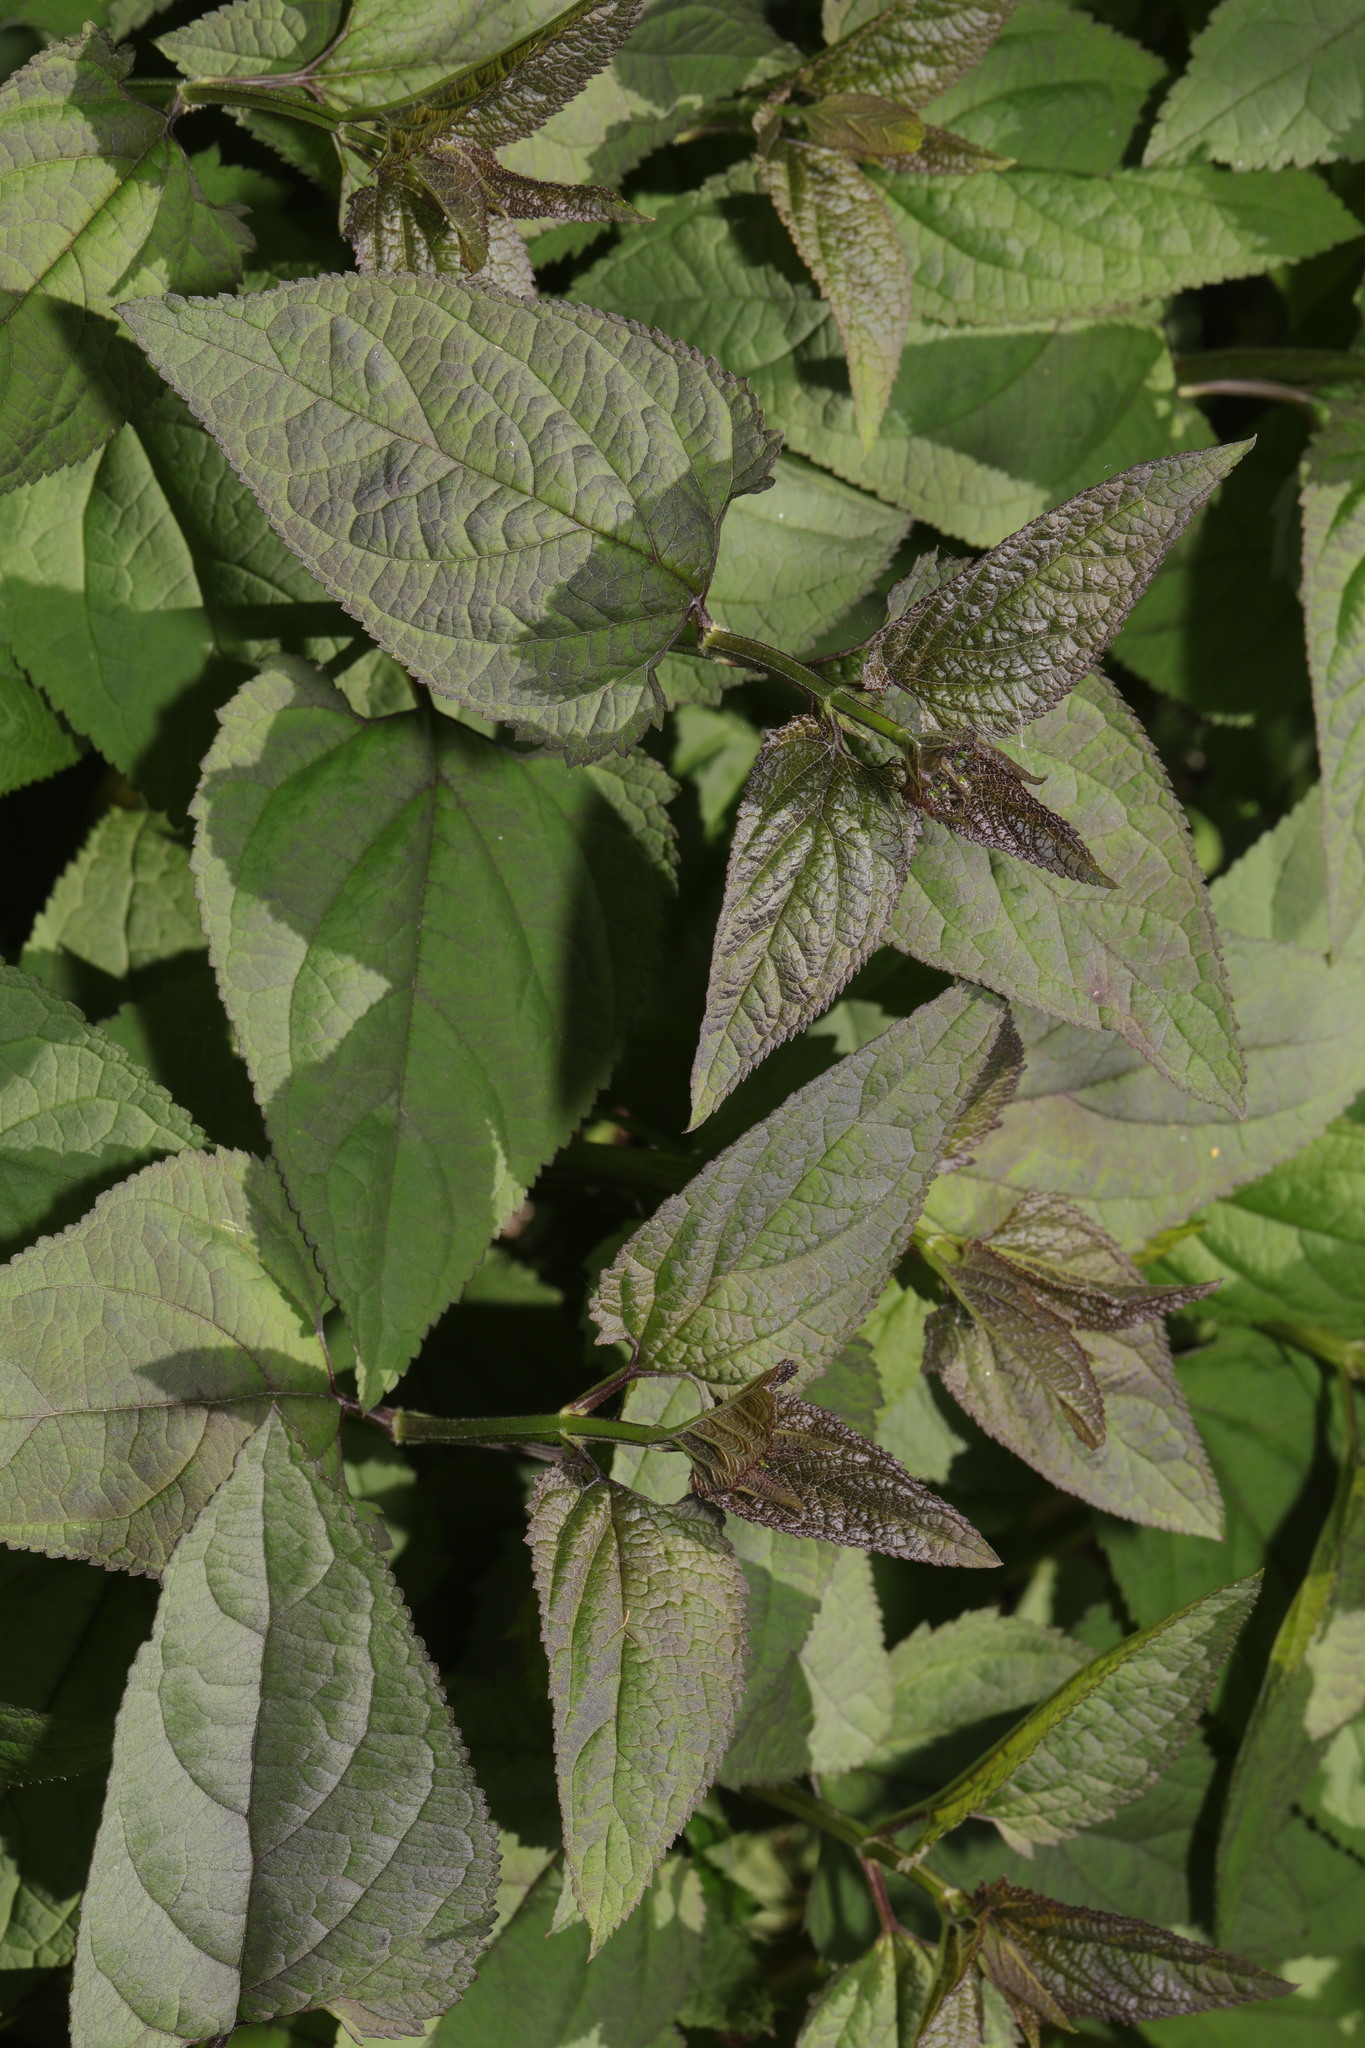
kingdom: Plantae
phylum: Tracheophyta
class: Magnoliopsida
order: Lamiales
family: Scrophulariaceae
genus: Scrophularia
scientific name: Scrophularia nodosa
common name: Common figwort
